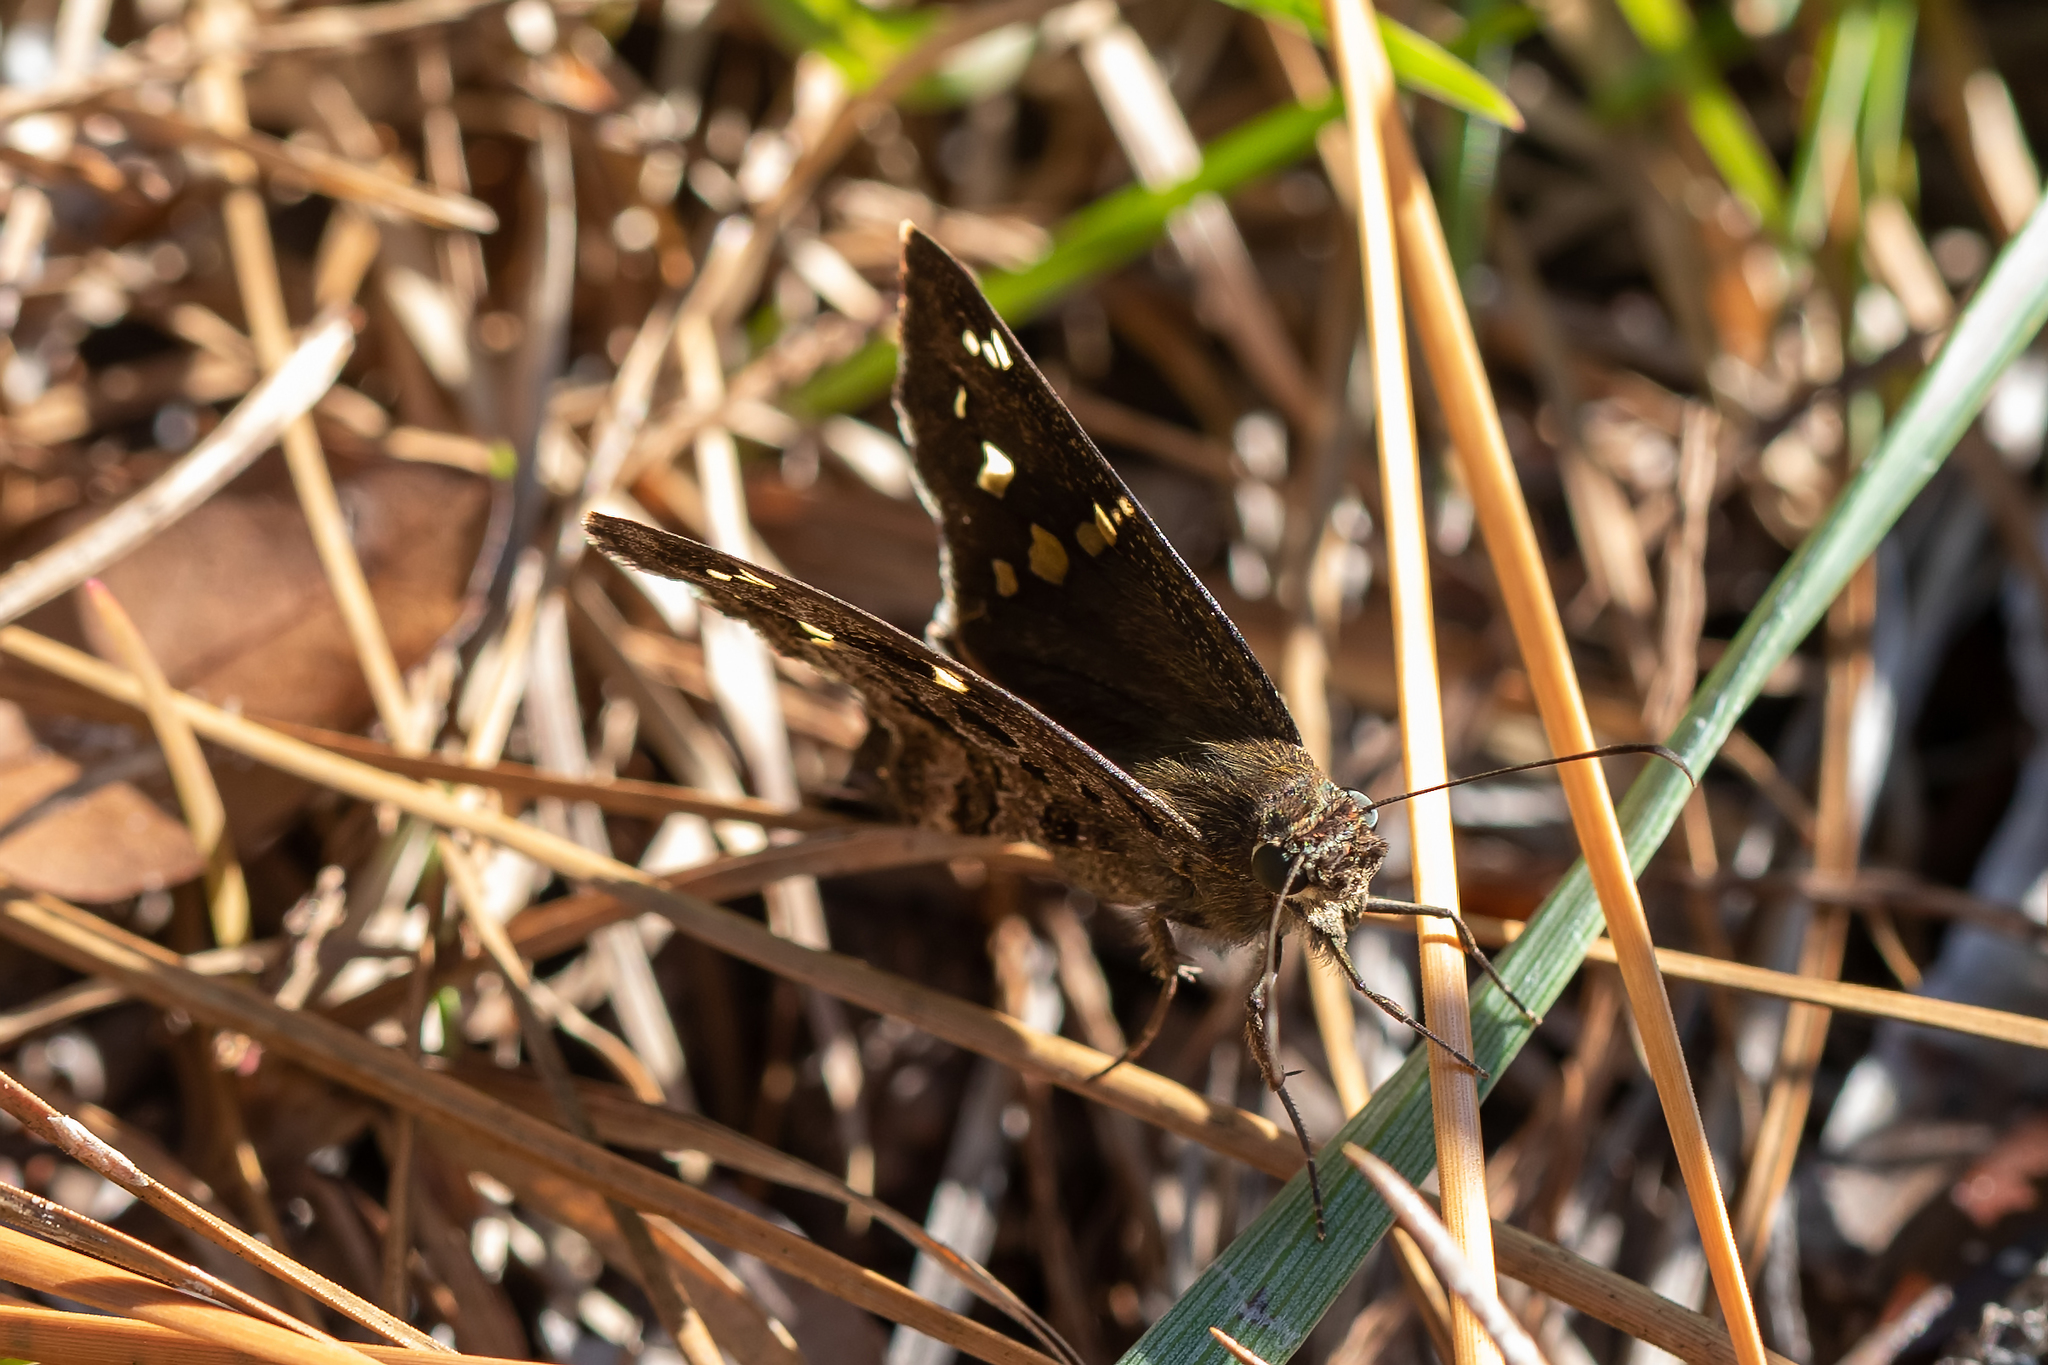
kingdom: Animalia
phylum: Arthropoda
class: Insecta
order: Lepidoptera
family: Hesperiidae
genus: Thorybes
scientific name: Thorybes
